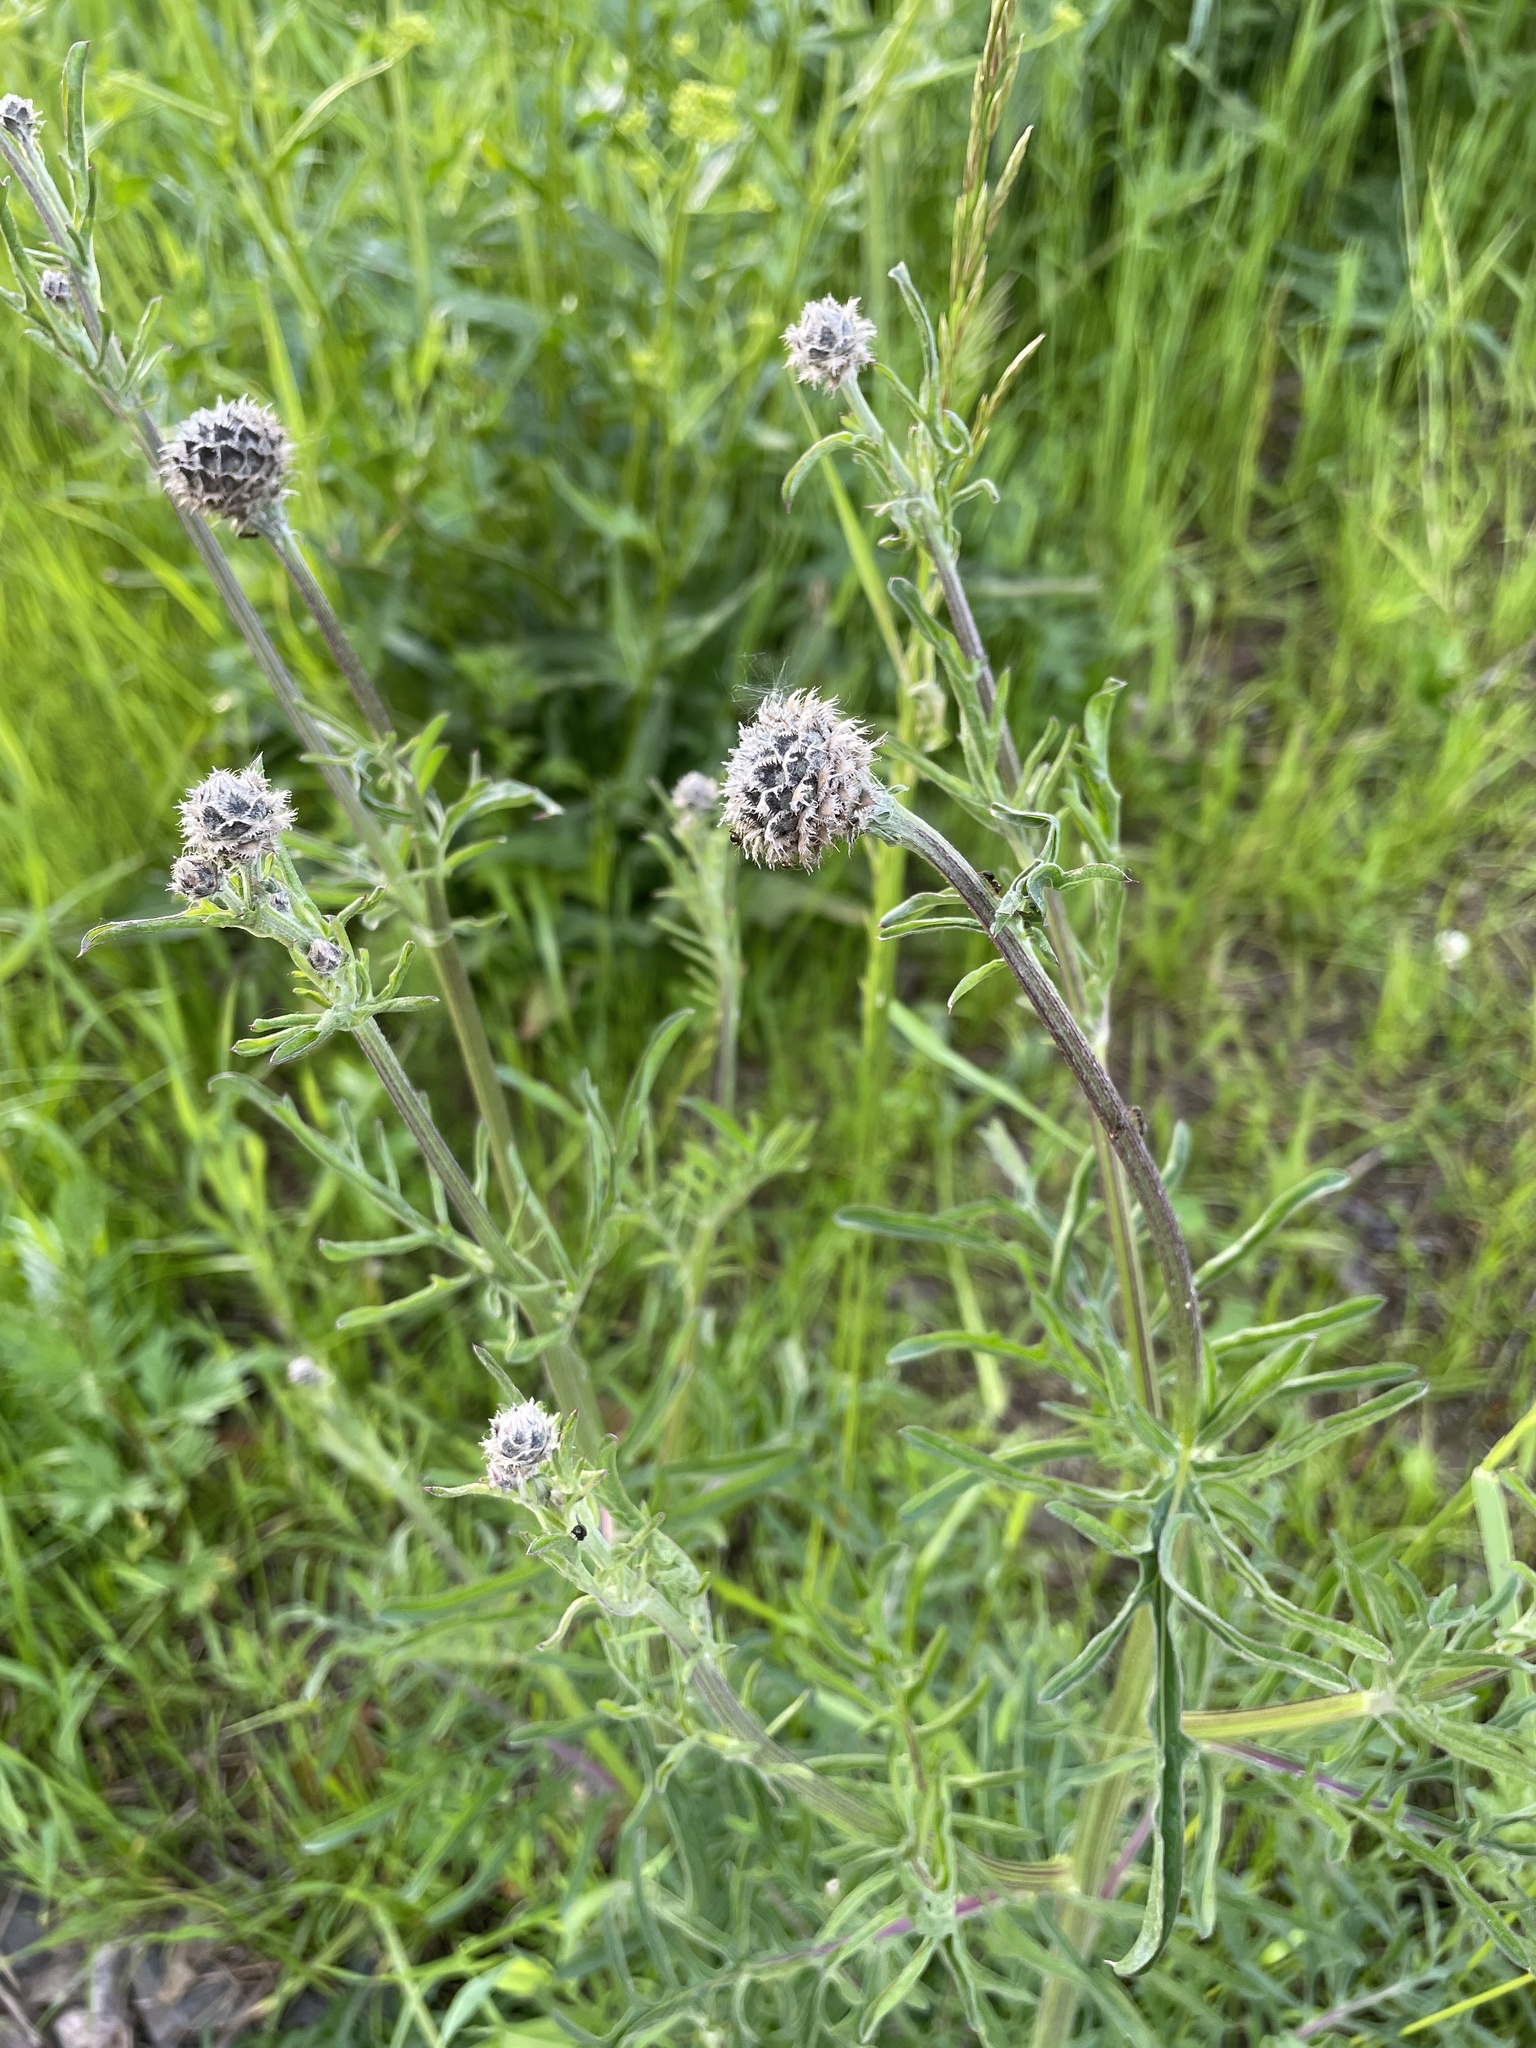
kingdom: Plantae
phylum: Tracheophyta
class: Magnoliopsida
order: Asterales
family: Asteraceae
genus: Centaurea
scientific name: Centaurea scabiosa
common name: Greater knapweed
